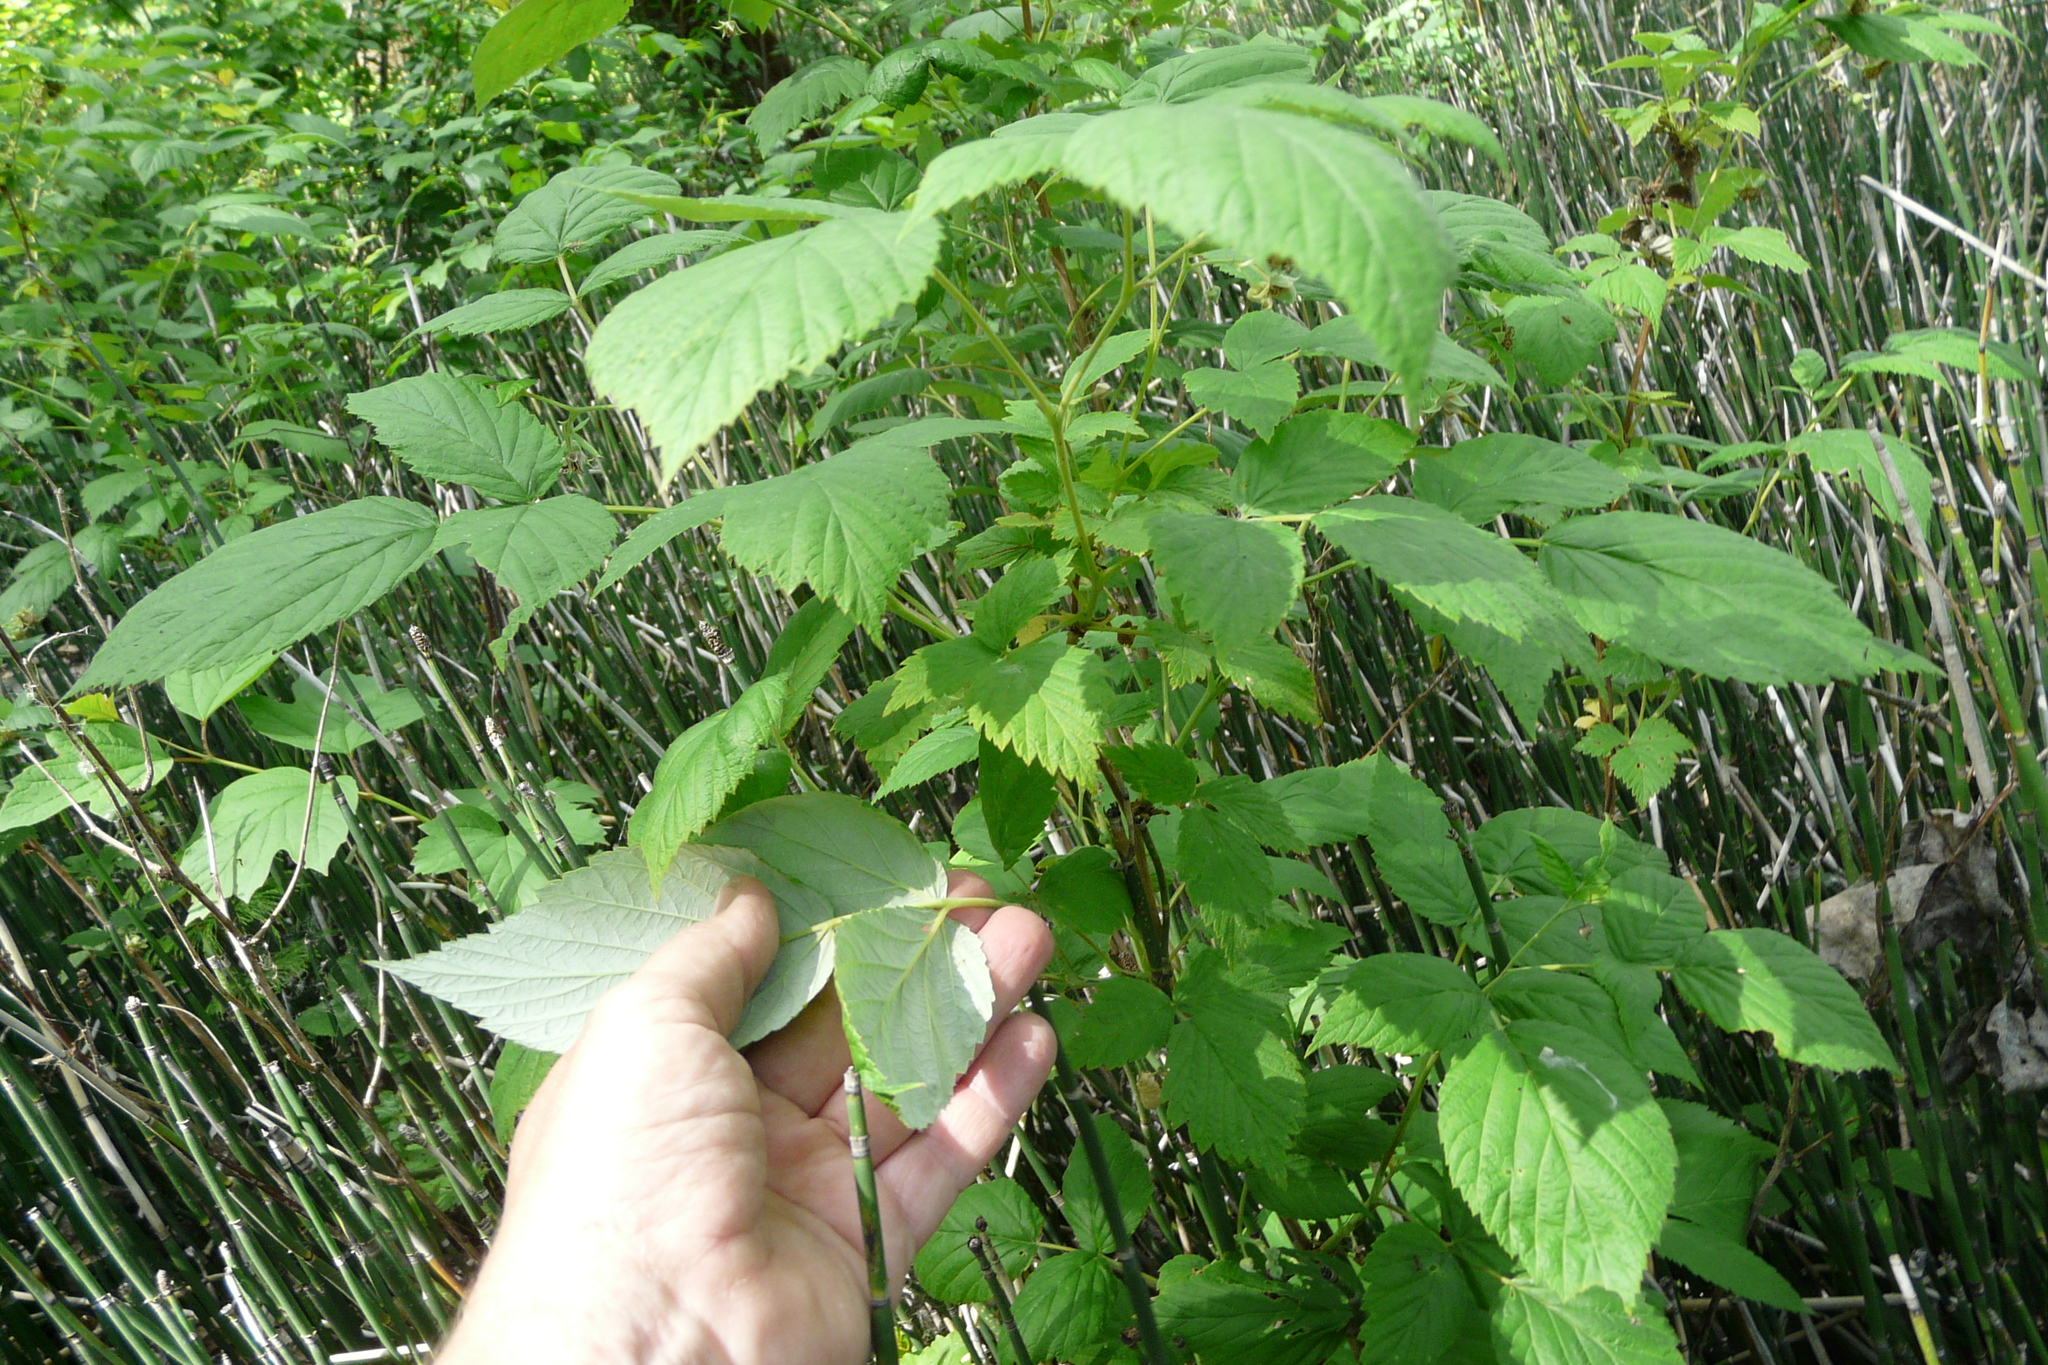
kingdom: Plantae
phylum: Tracheophyta
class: Magnoliopsida
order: Rosales
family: Rosaceae
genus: Rubus
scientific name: Rubus idaeus
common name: Raspberry
